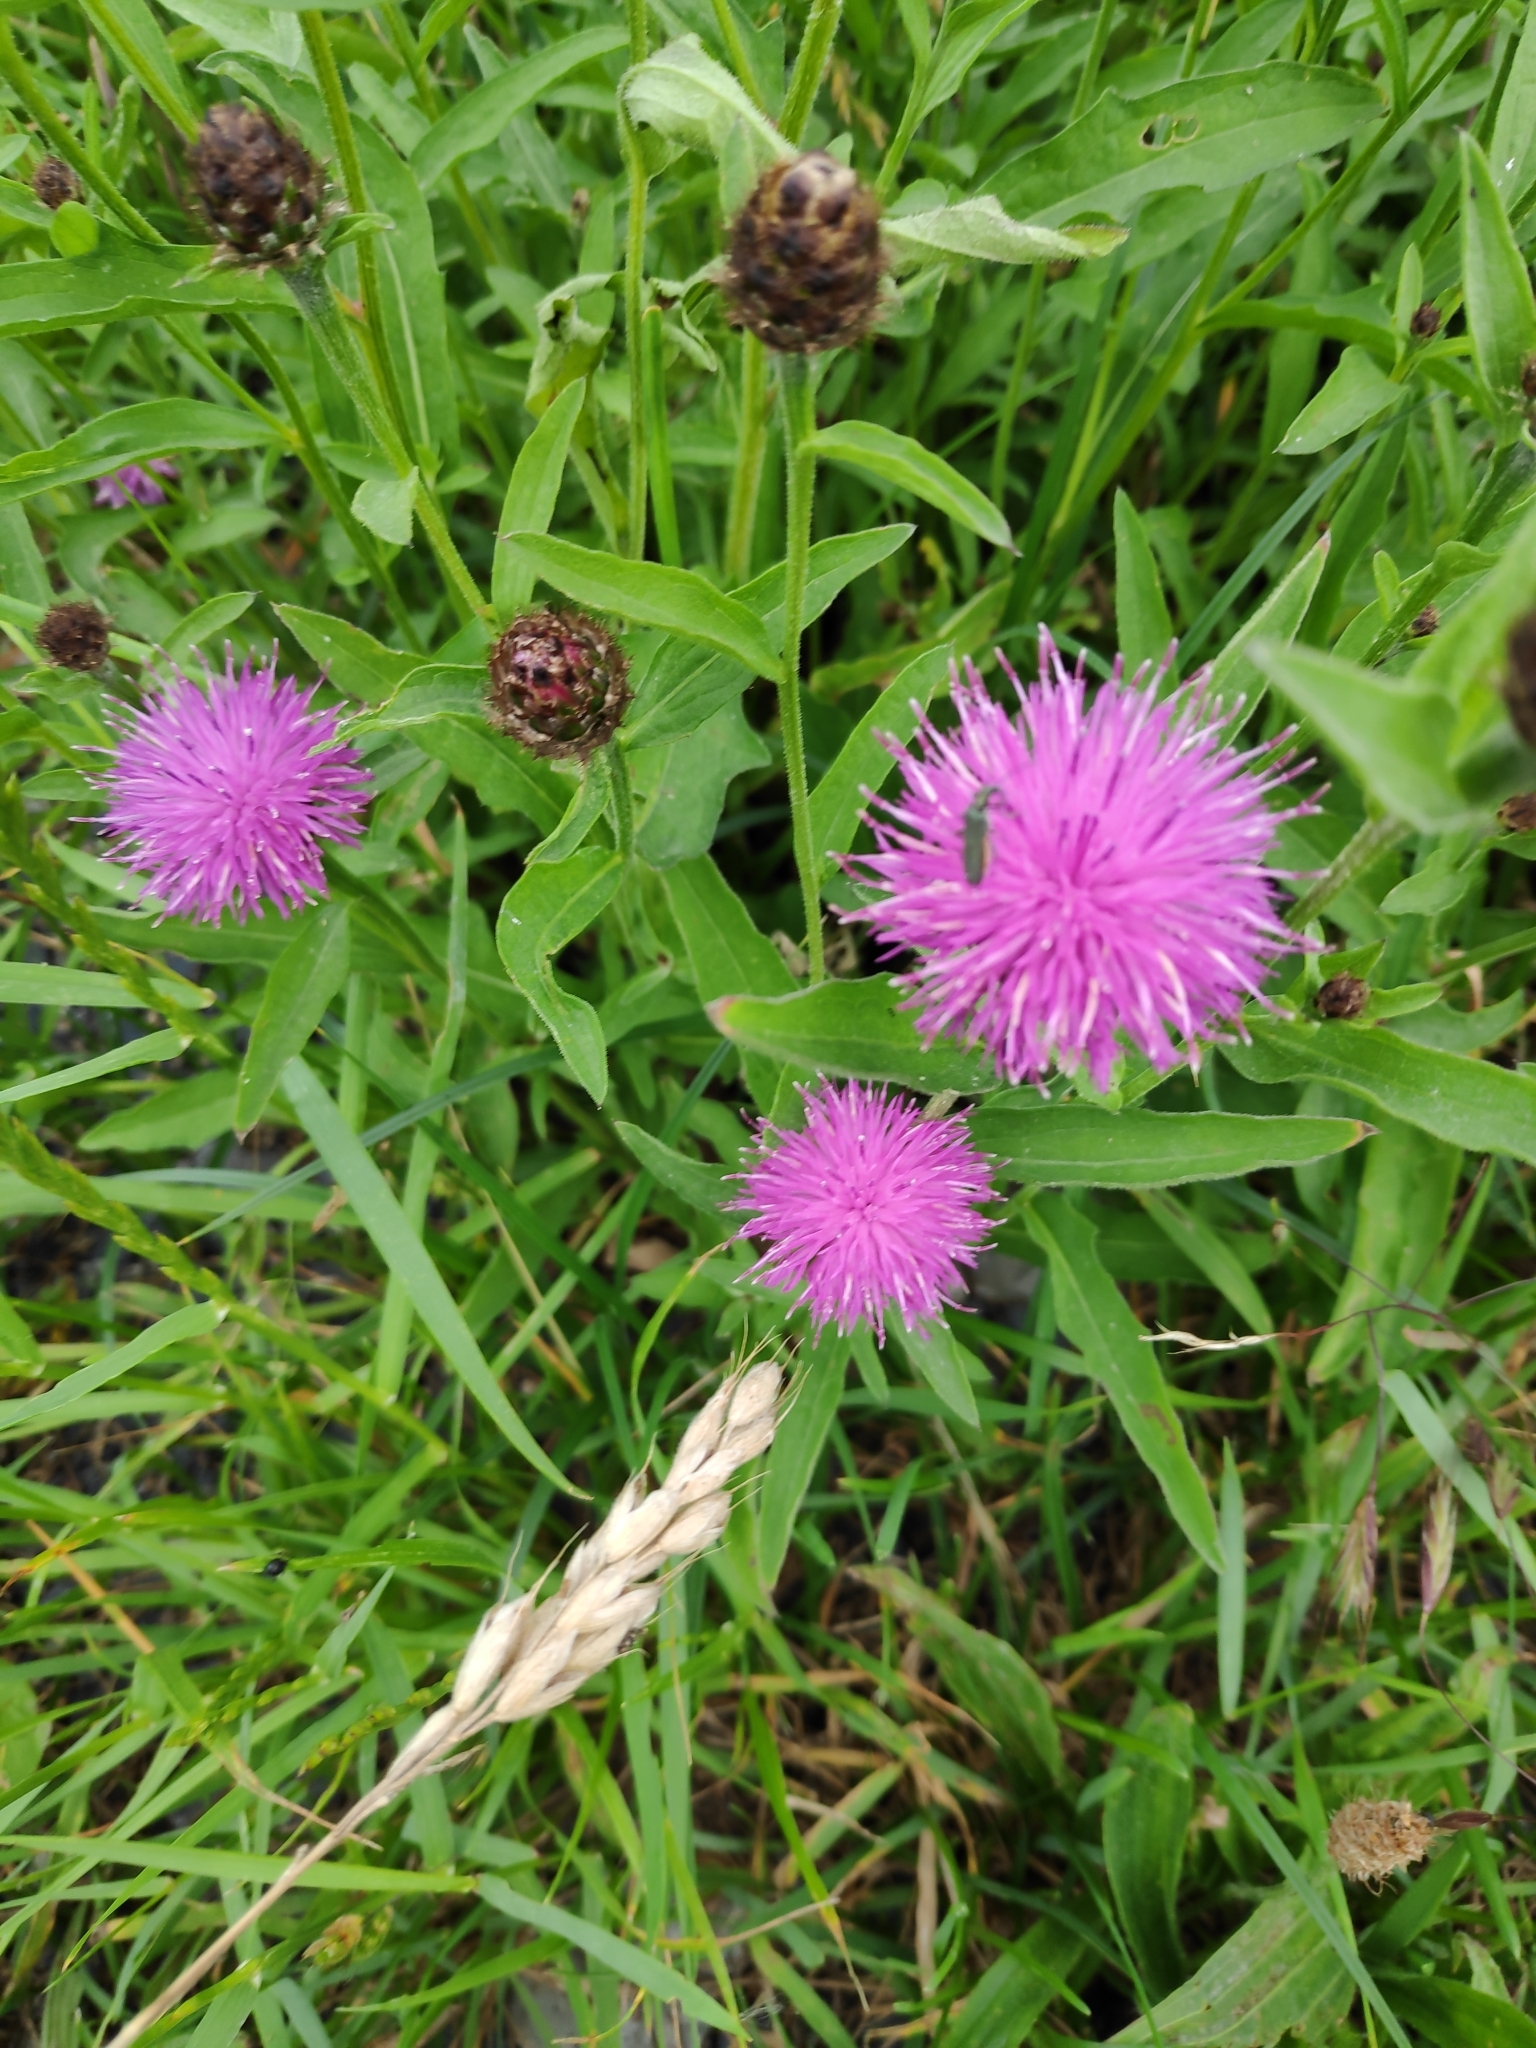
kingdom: Plantae
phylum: Tracheophyta
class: Magnoliopsida
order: Asterales
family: Asteraceae
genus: Centaurea
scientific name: Centaurea nigra
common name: Lesser knapweed
